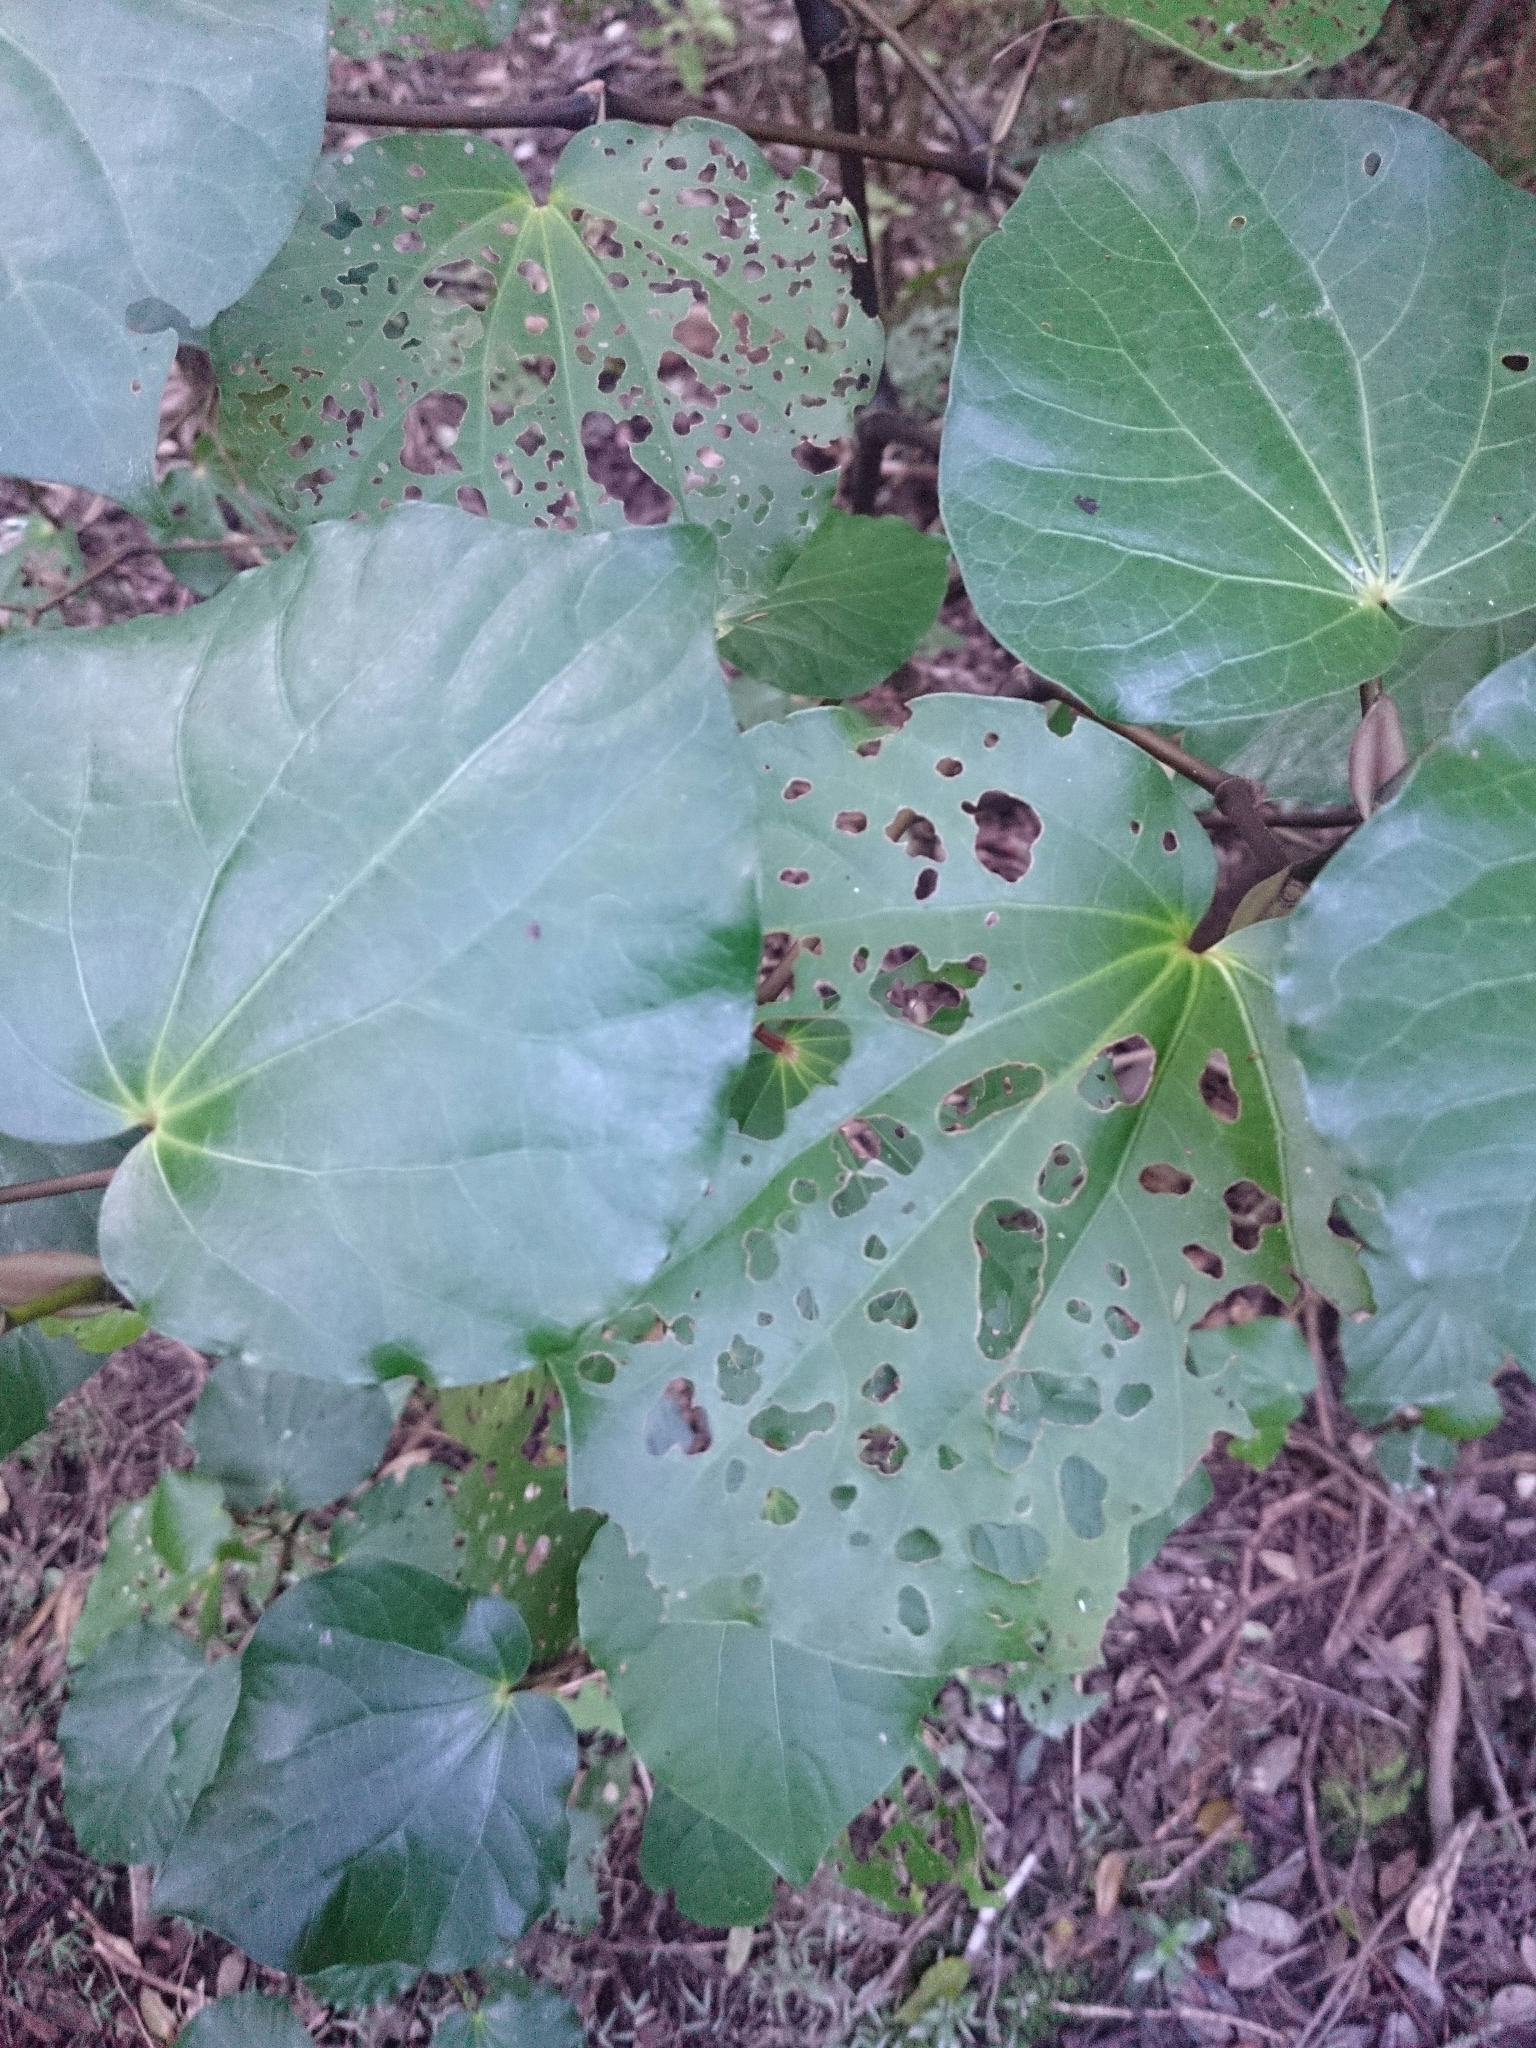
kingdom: Plantae
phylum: Tracheophyta
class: Magnoliopsida
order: Piperales
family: Piperaceae
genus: Macropiper
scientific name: Macropiper excelsum
